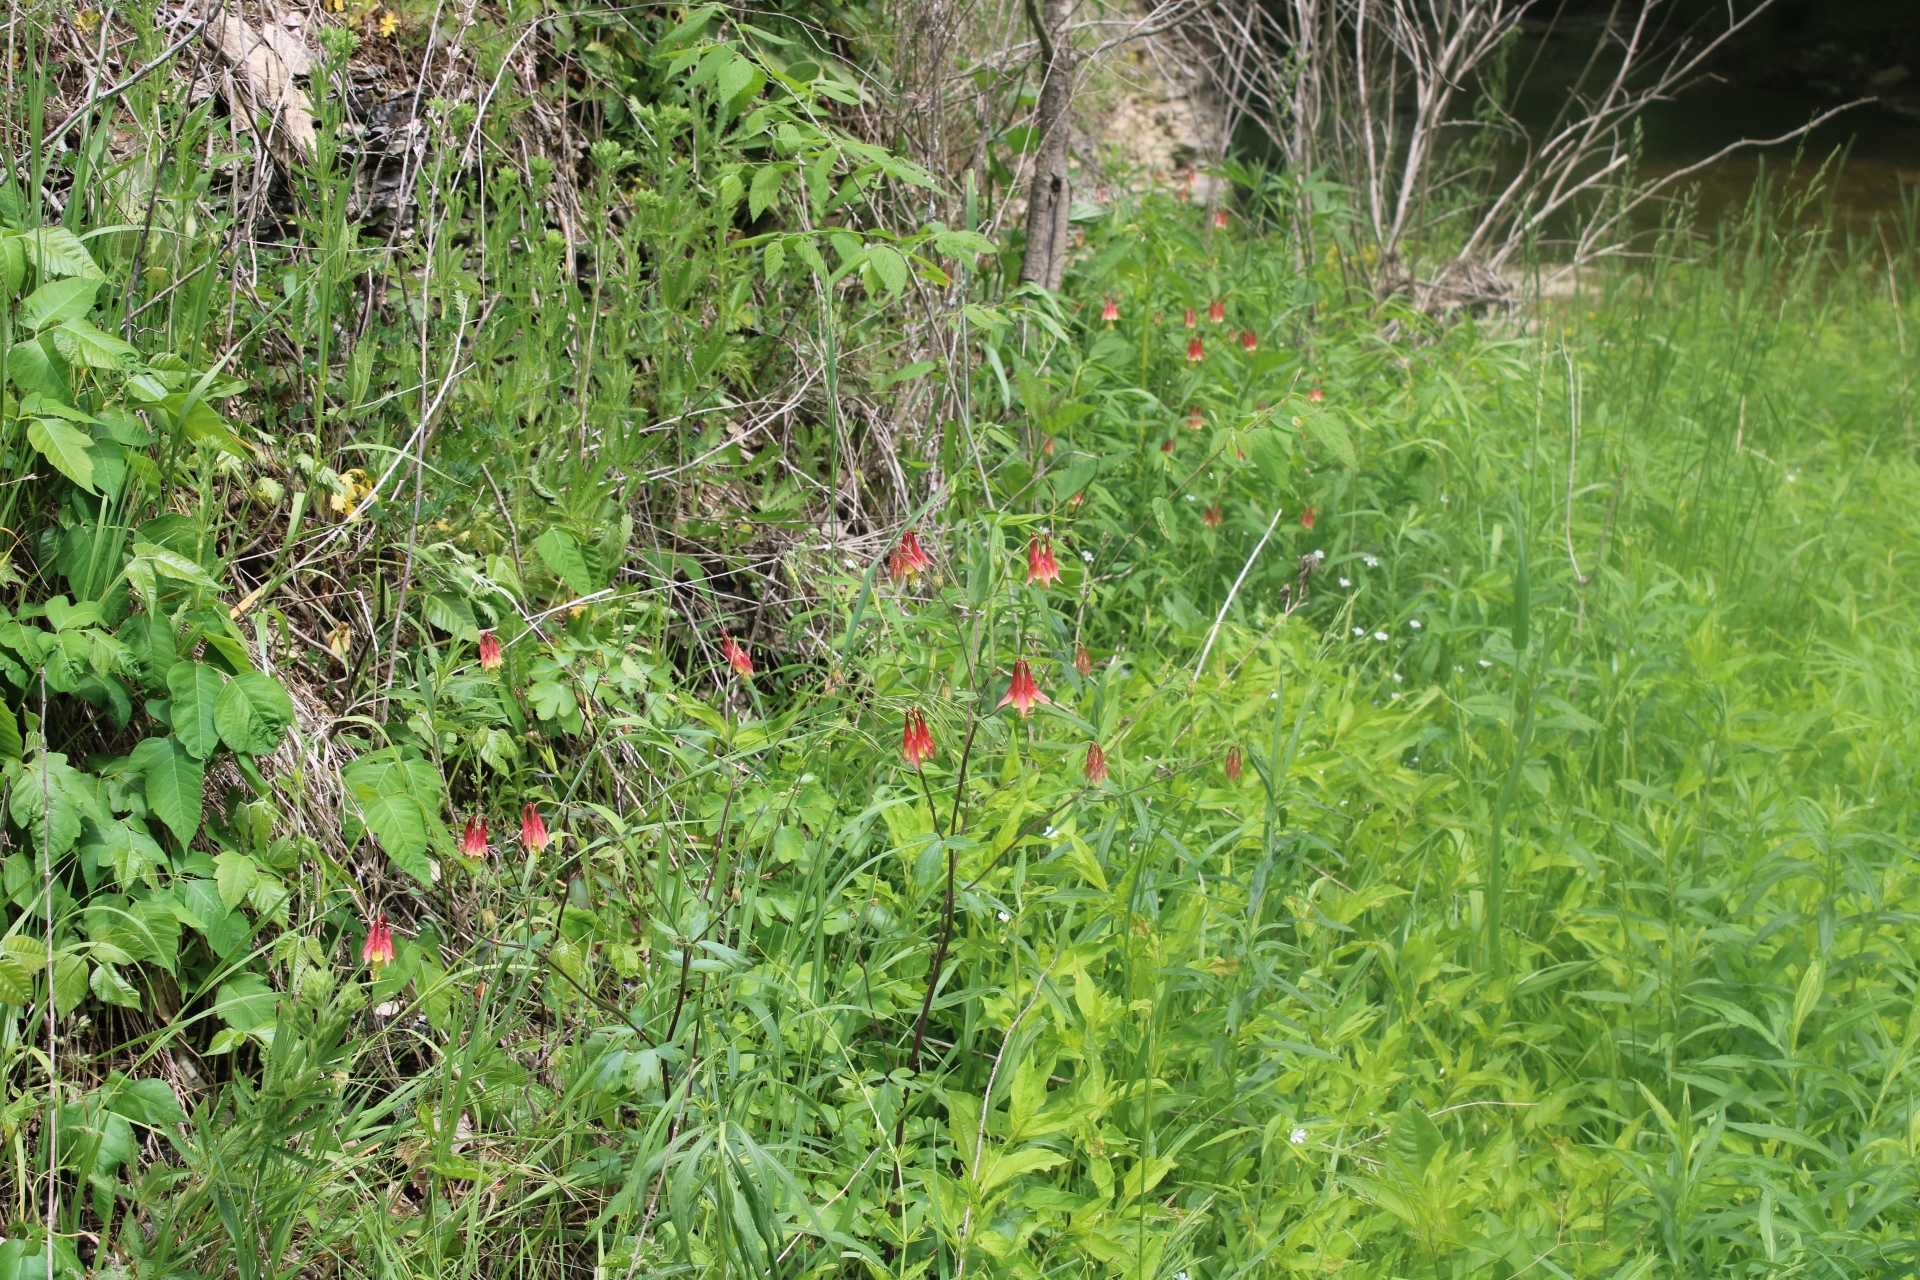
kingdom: Plantae
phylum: Tracheophyta
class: Magnoliopsida
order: Ranunculales
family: Ranunculaceae
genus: Aquilegia
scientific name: Aquilegia canadensis
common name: American columbine
